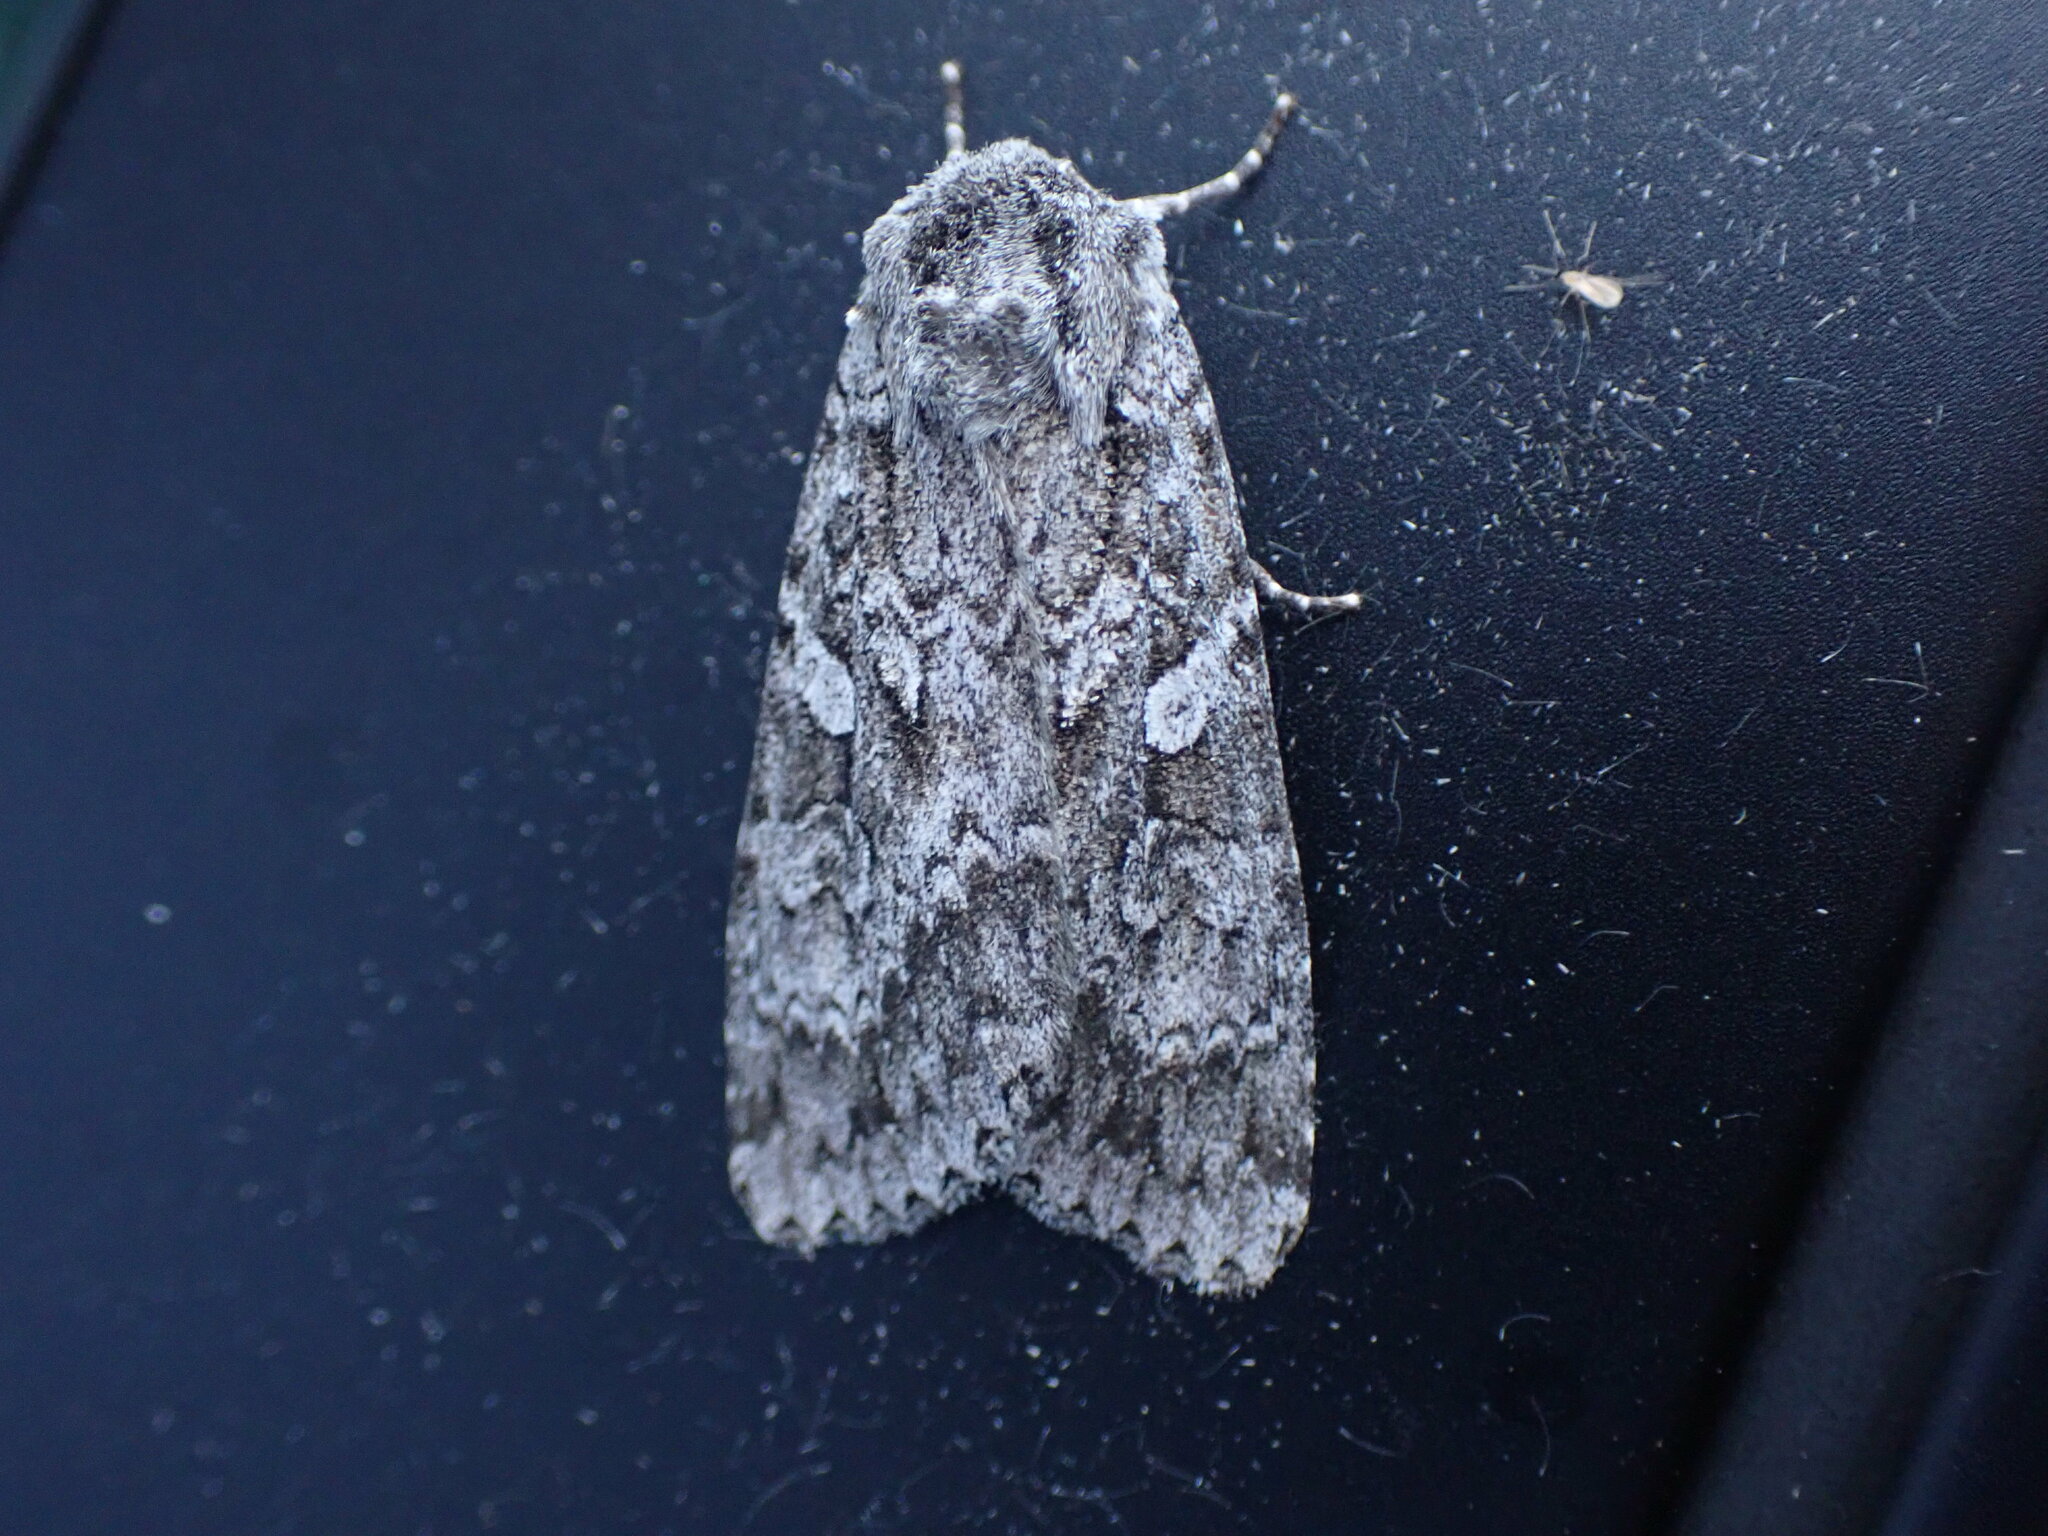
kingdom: Animalia
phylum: Arthropoda
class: Insecta
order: Lepidoptera
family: Noctuidae
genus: Eurois
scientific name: Eurois occulta
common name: Great brocade
